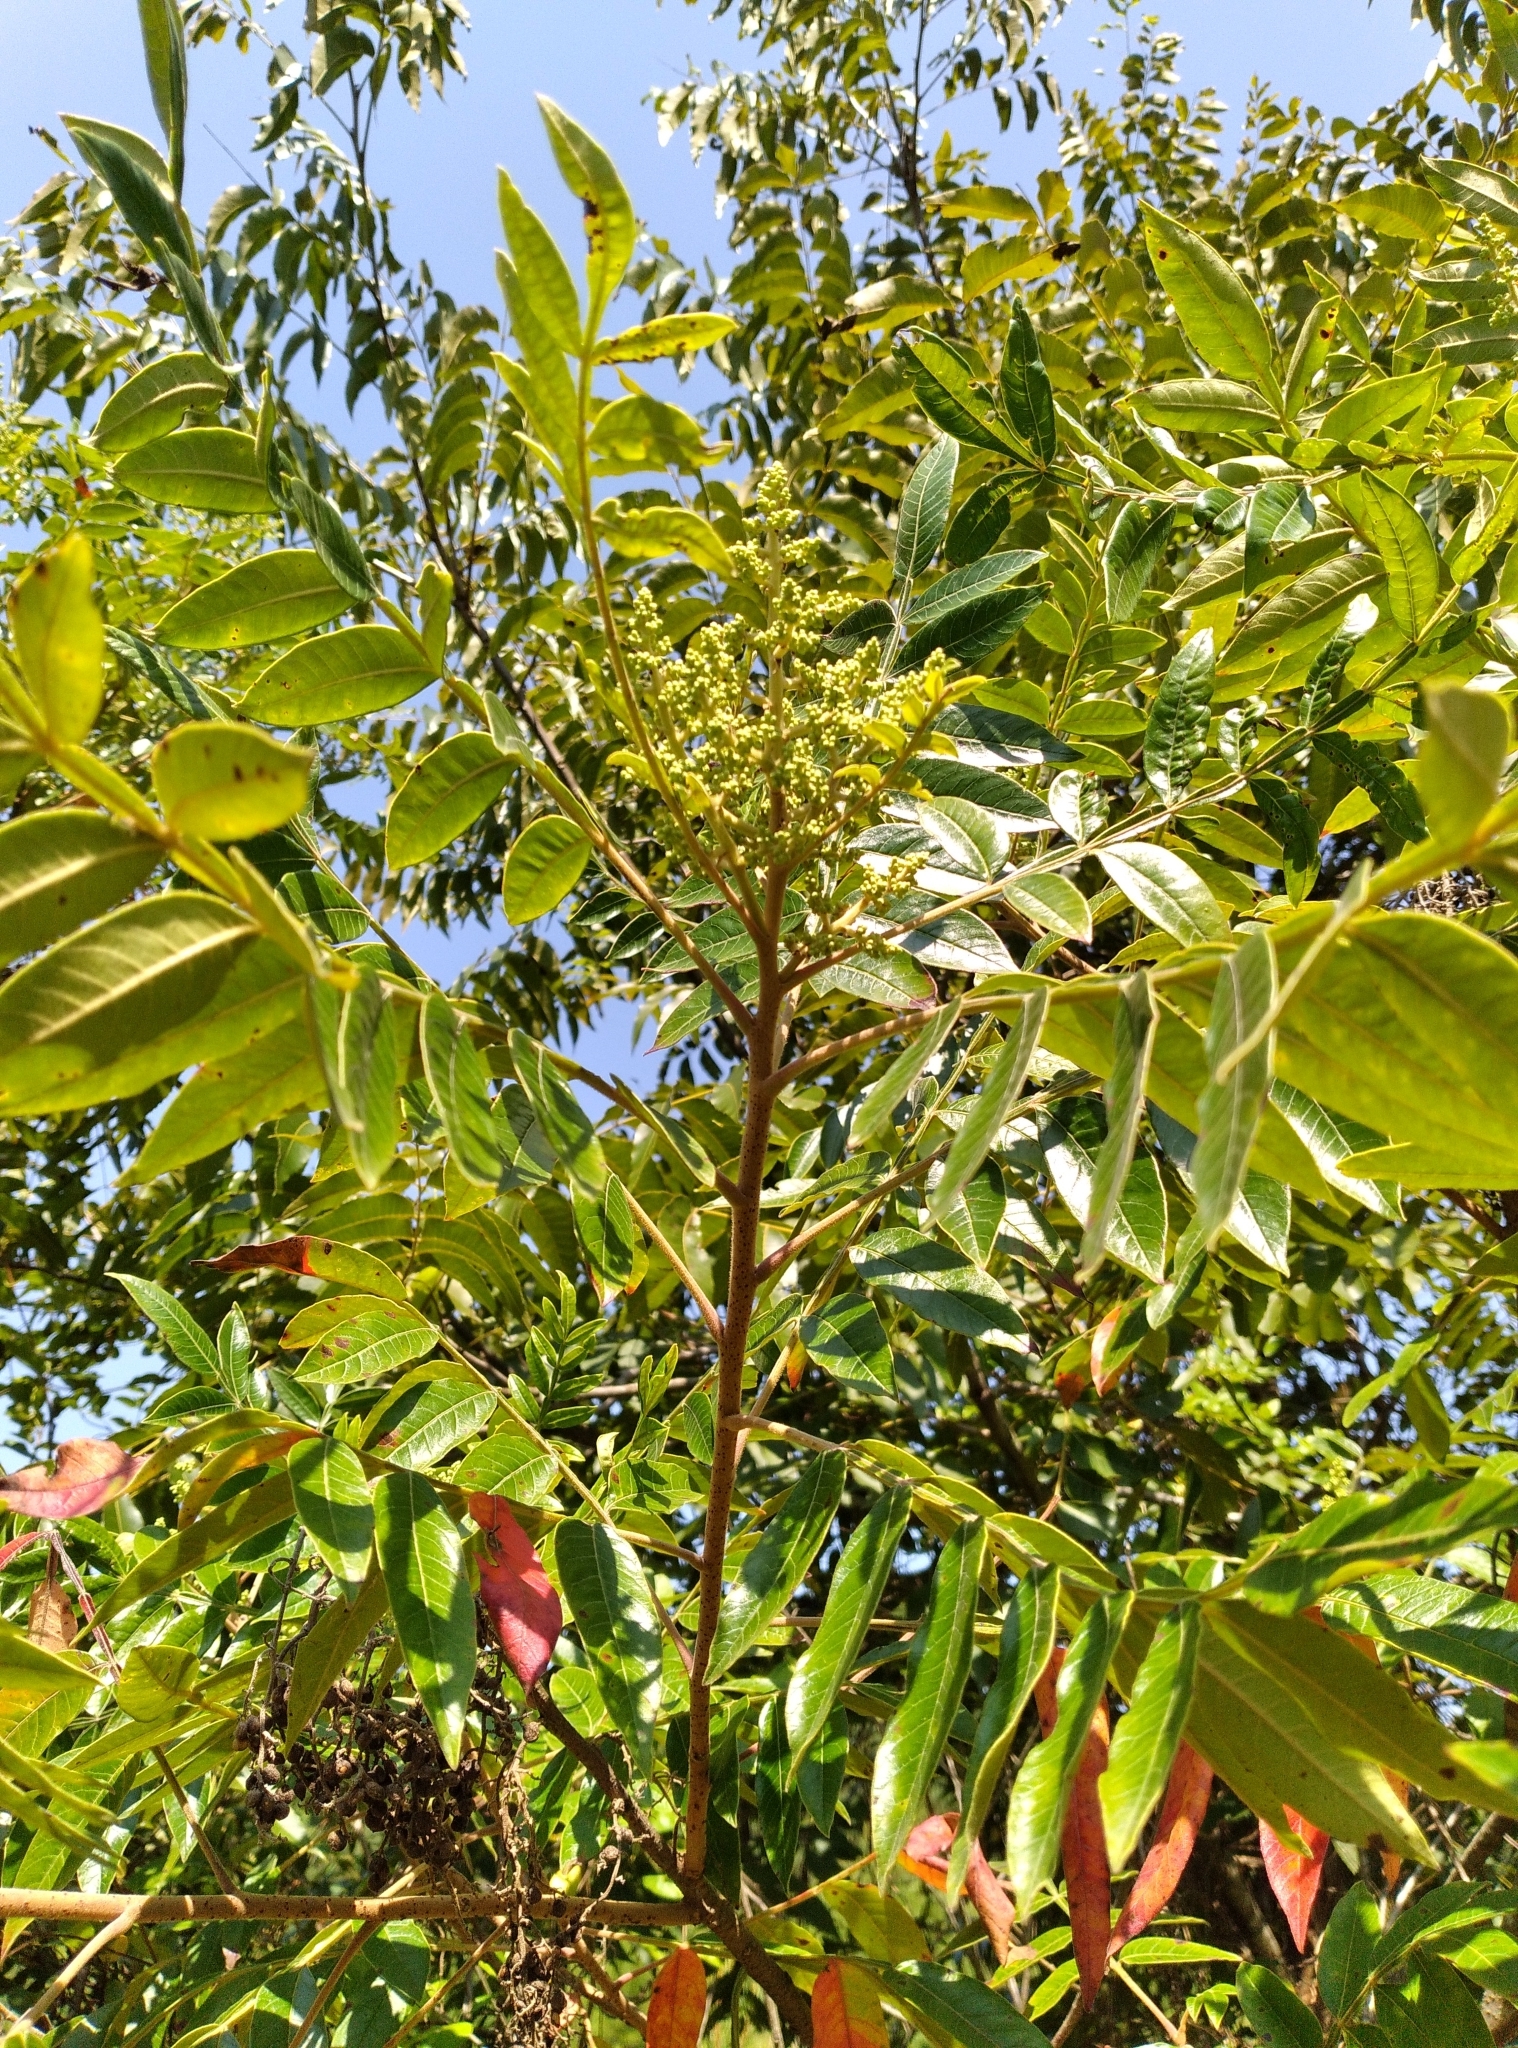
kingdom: Plantae
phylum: Tracheophyta
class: Magnoliopsida
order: Sapindales
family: Anacardiaceae
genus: Rhus
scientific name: Rhus copallina
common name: Shining sumac
